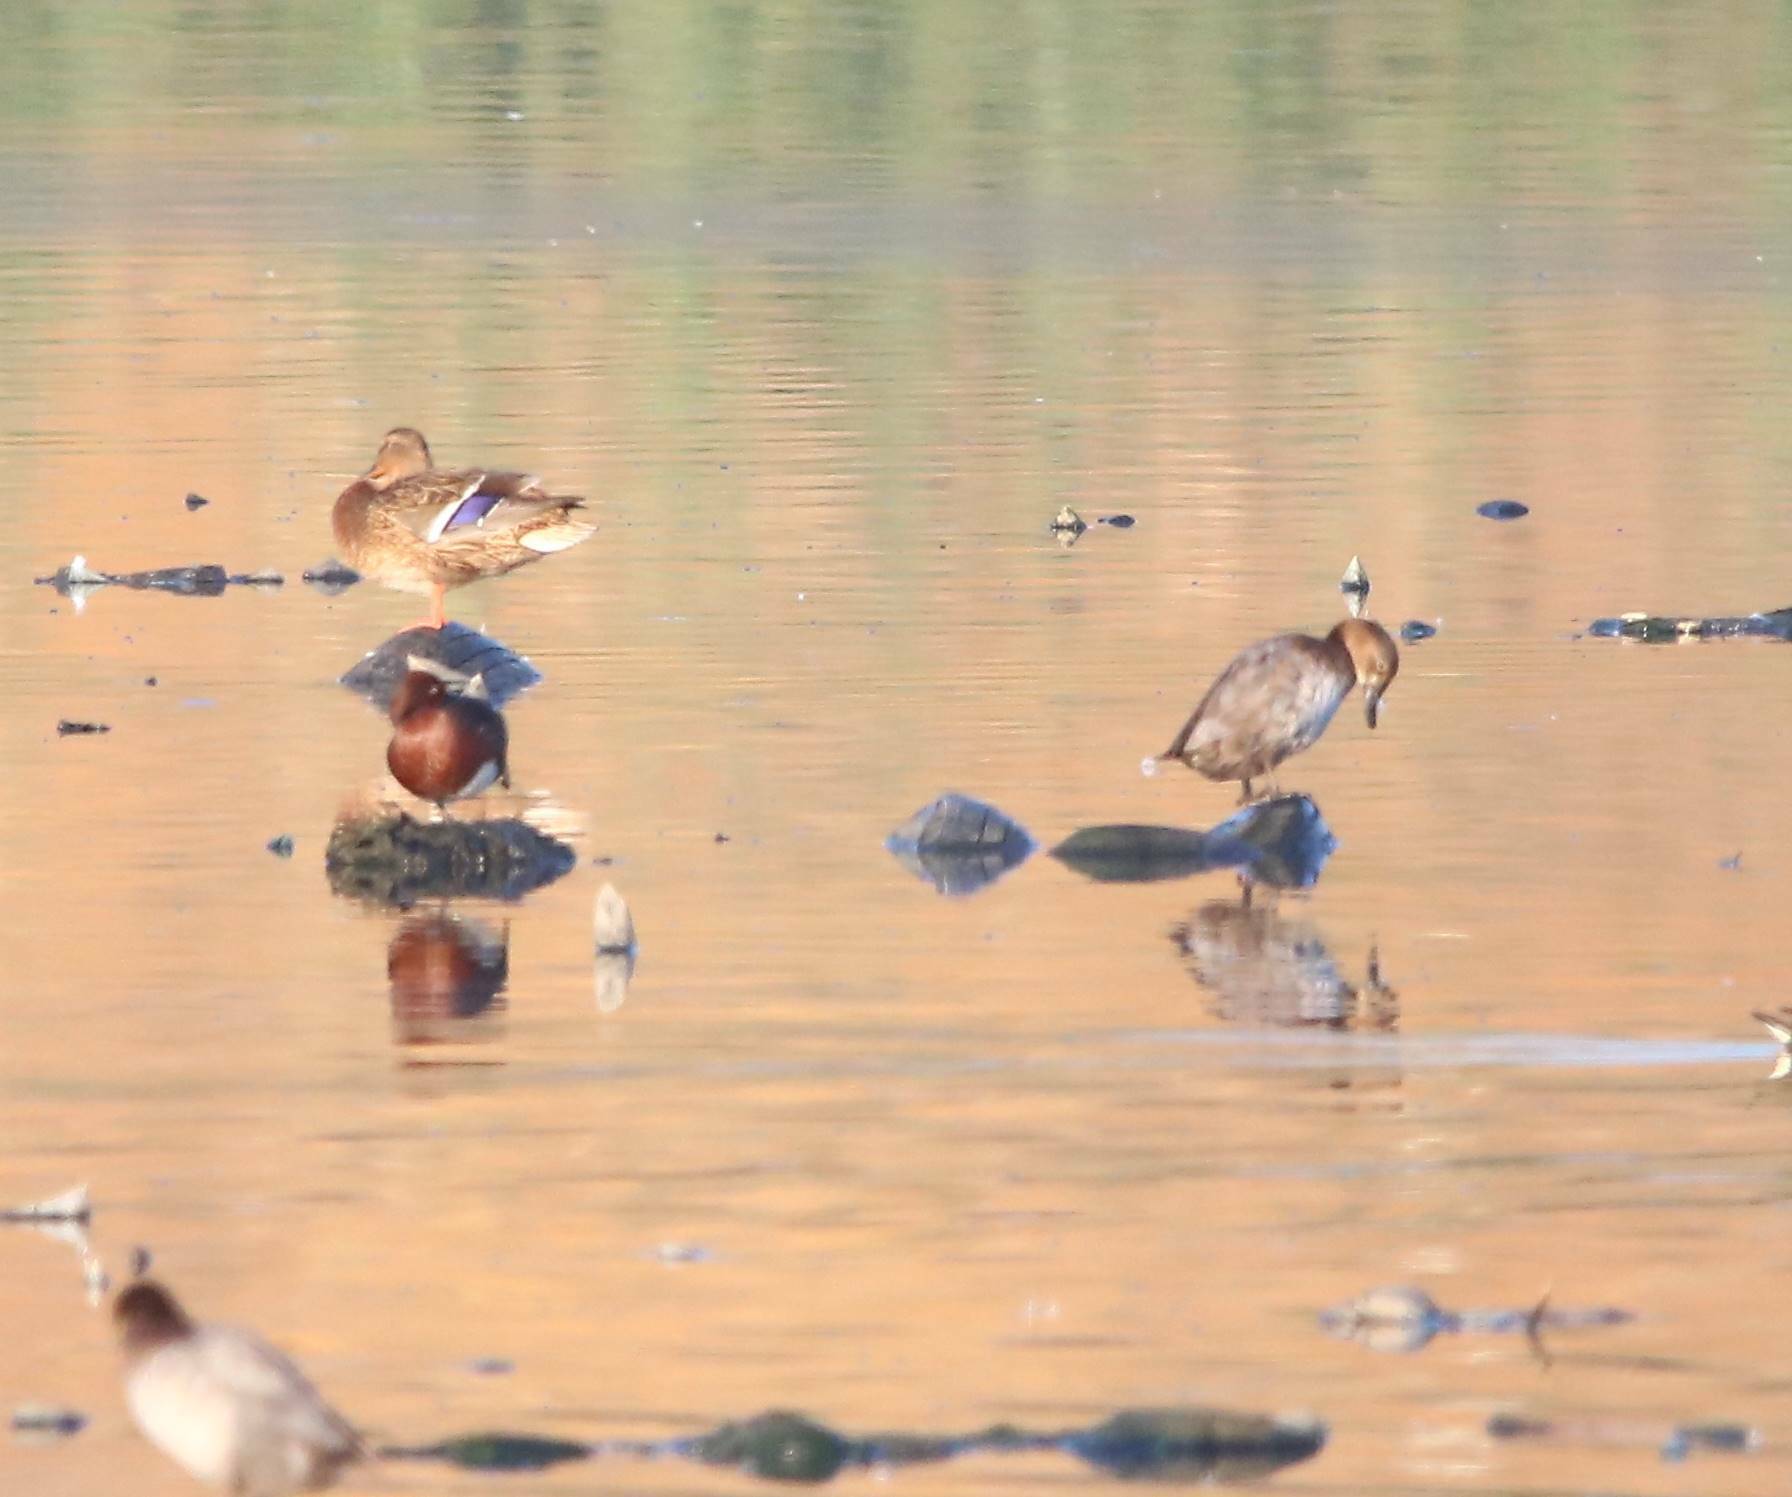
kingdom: Animalia
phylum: Chordata
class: Aves
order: Anseriformes
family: Anatidae
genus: Aythya
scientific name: Aythya nyroca
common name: Ferruginous duck
